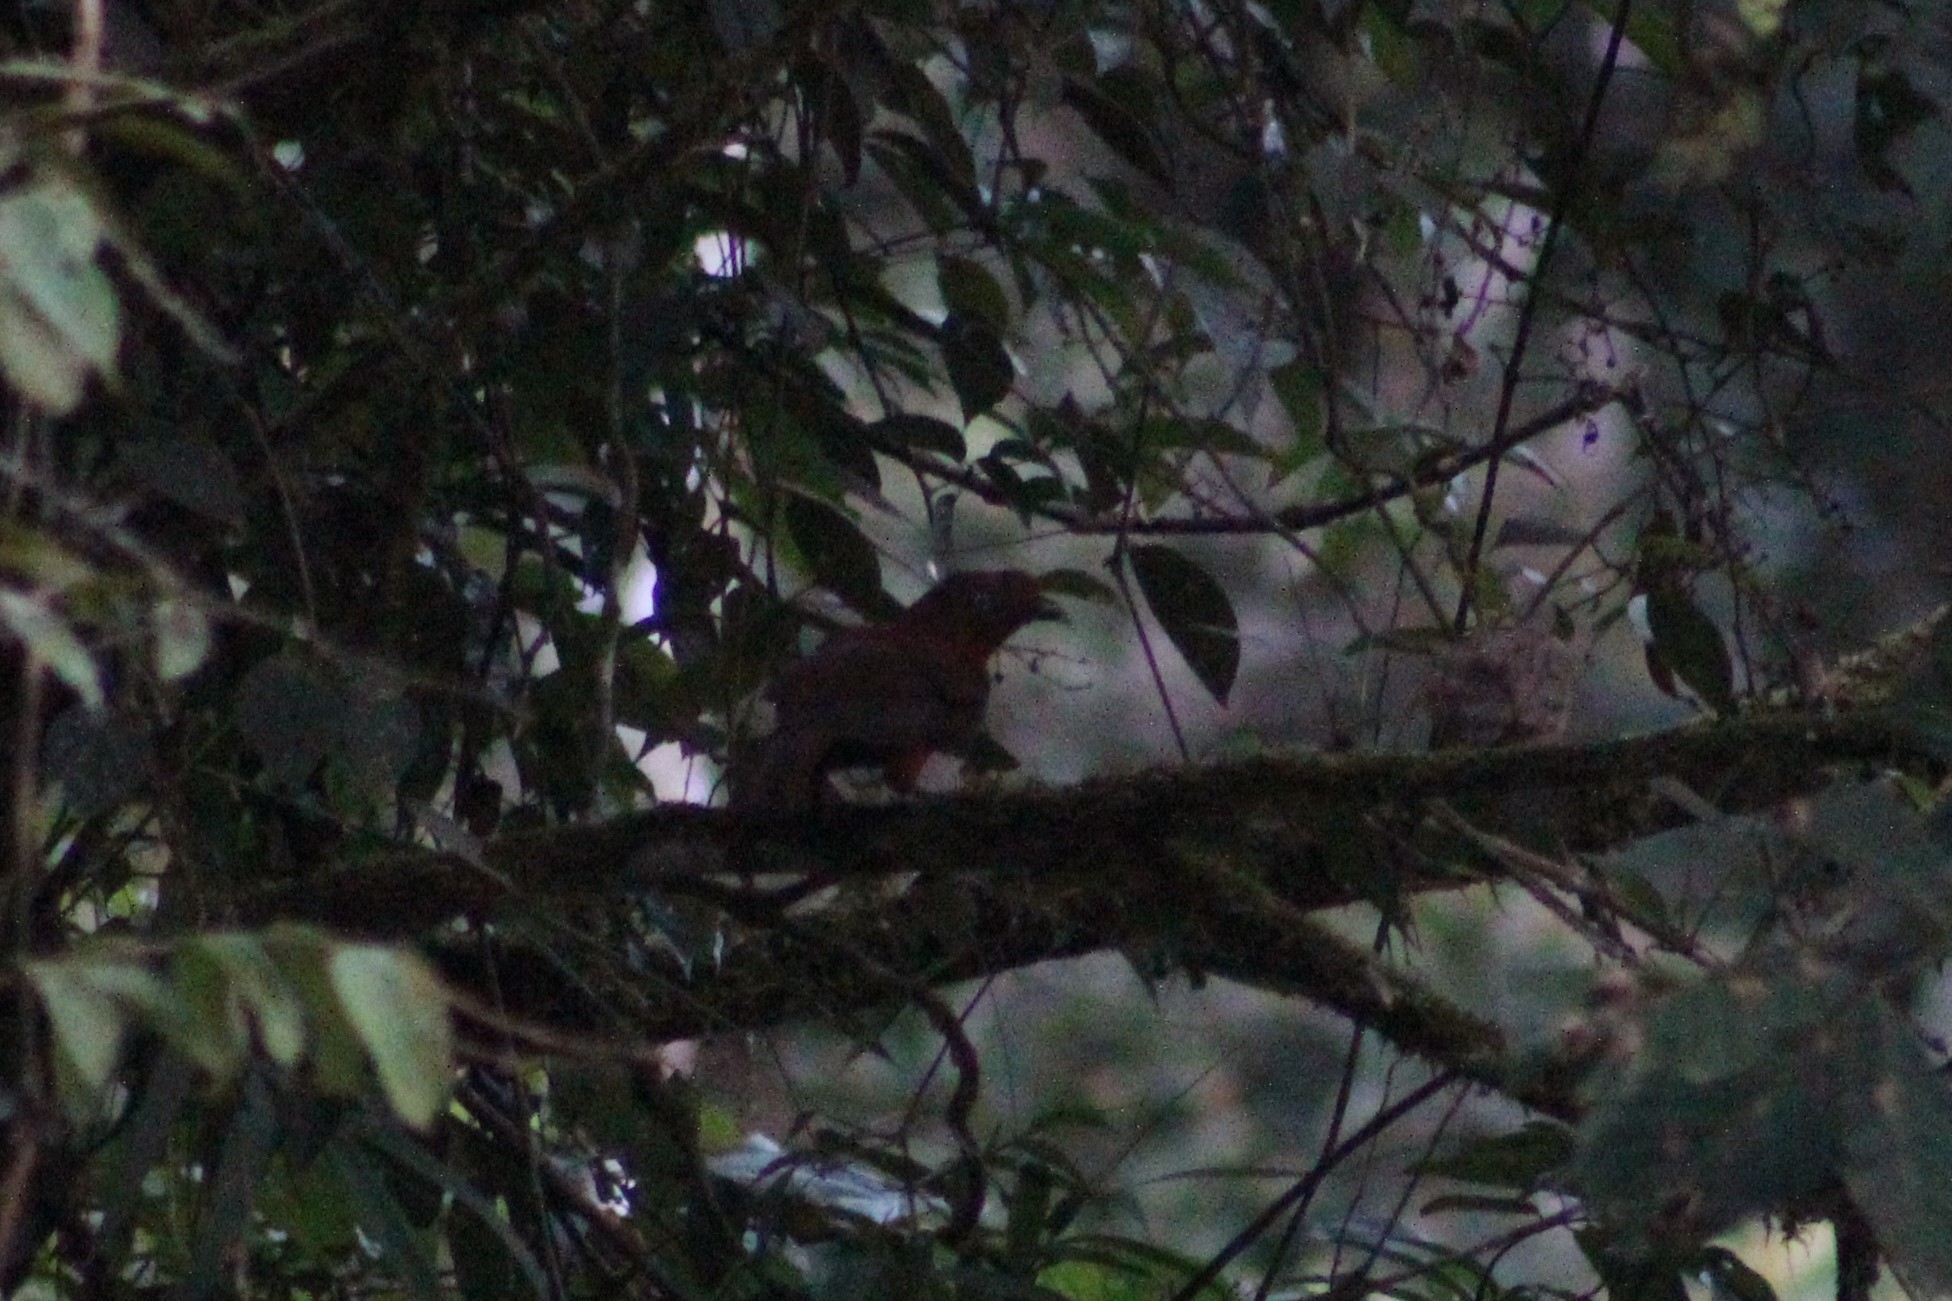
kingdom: Animalia
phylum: Chordata
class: Aves
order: Passeriformes
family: Cotingidae
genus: Rupicola
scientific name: Rupicola peruvianus
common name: Andean cock-of-the-rock
